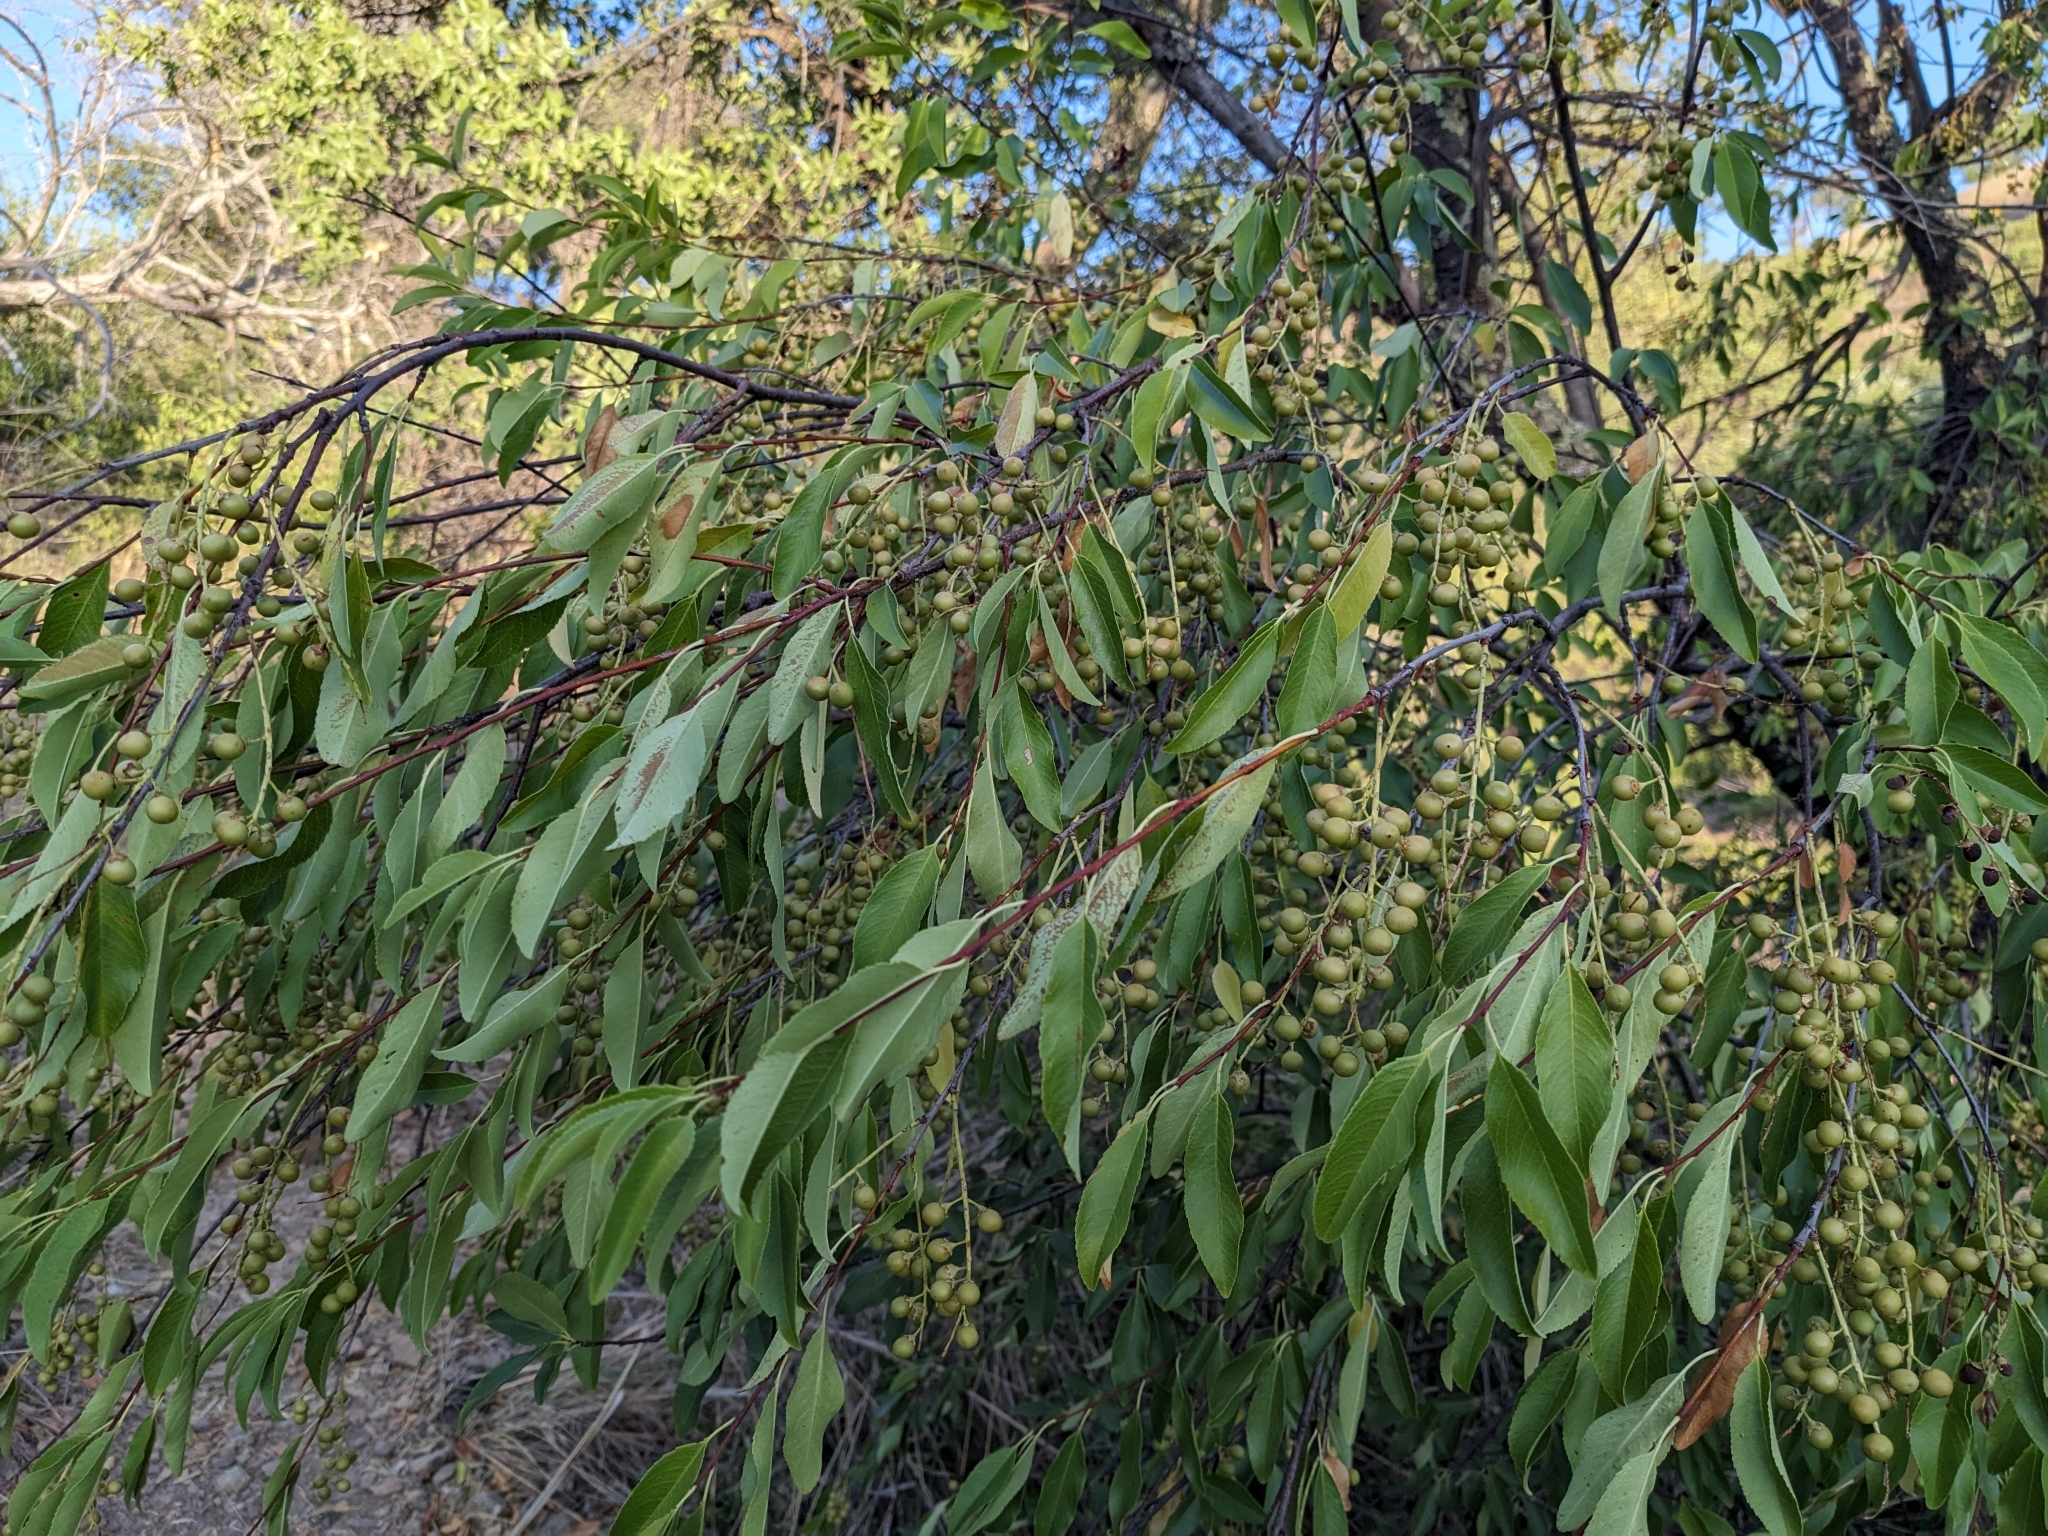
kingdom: Plantae
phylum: Tracheophyta
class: Magnoliopsida
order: Rosales
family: Rosaceae
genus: Prunus
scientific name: Prunus serotina
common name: Black cherry
